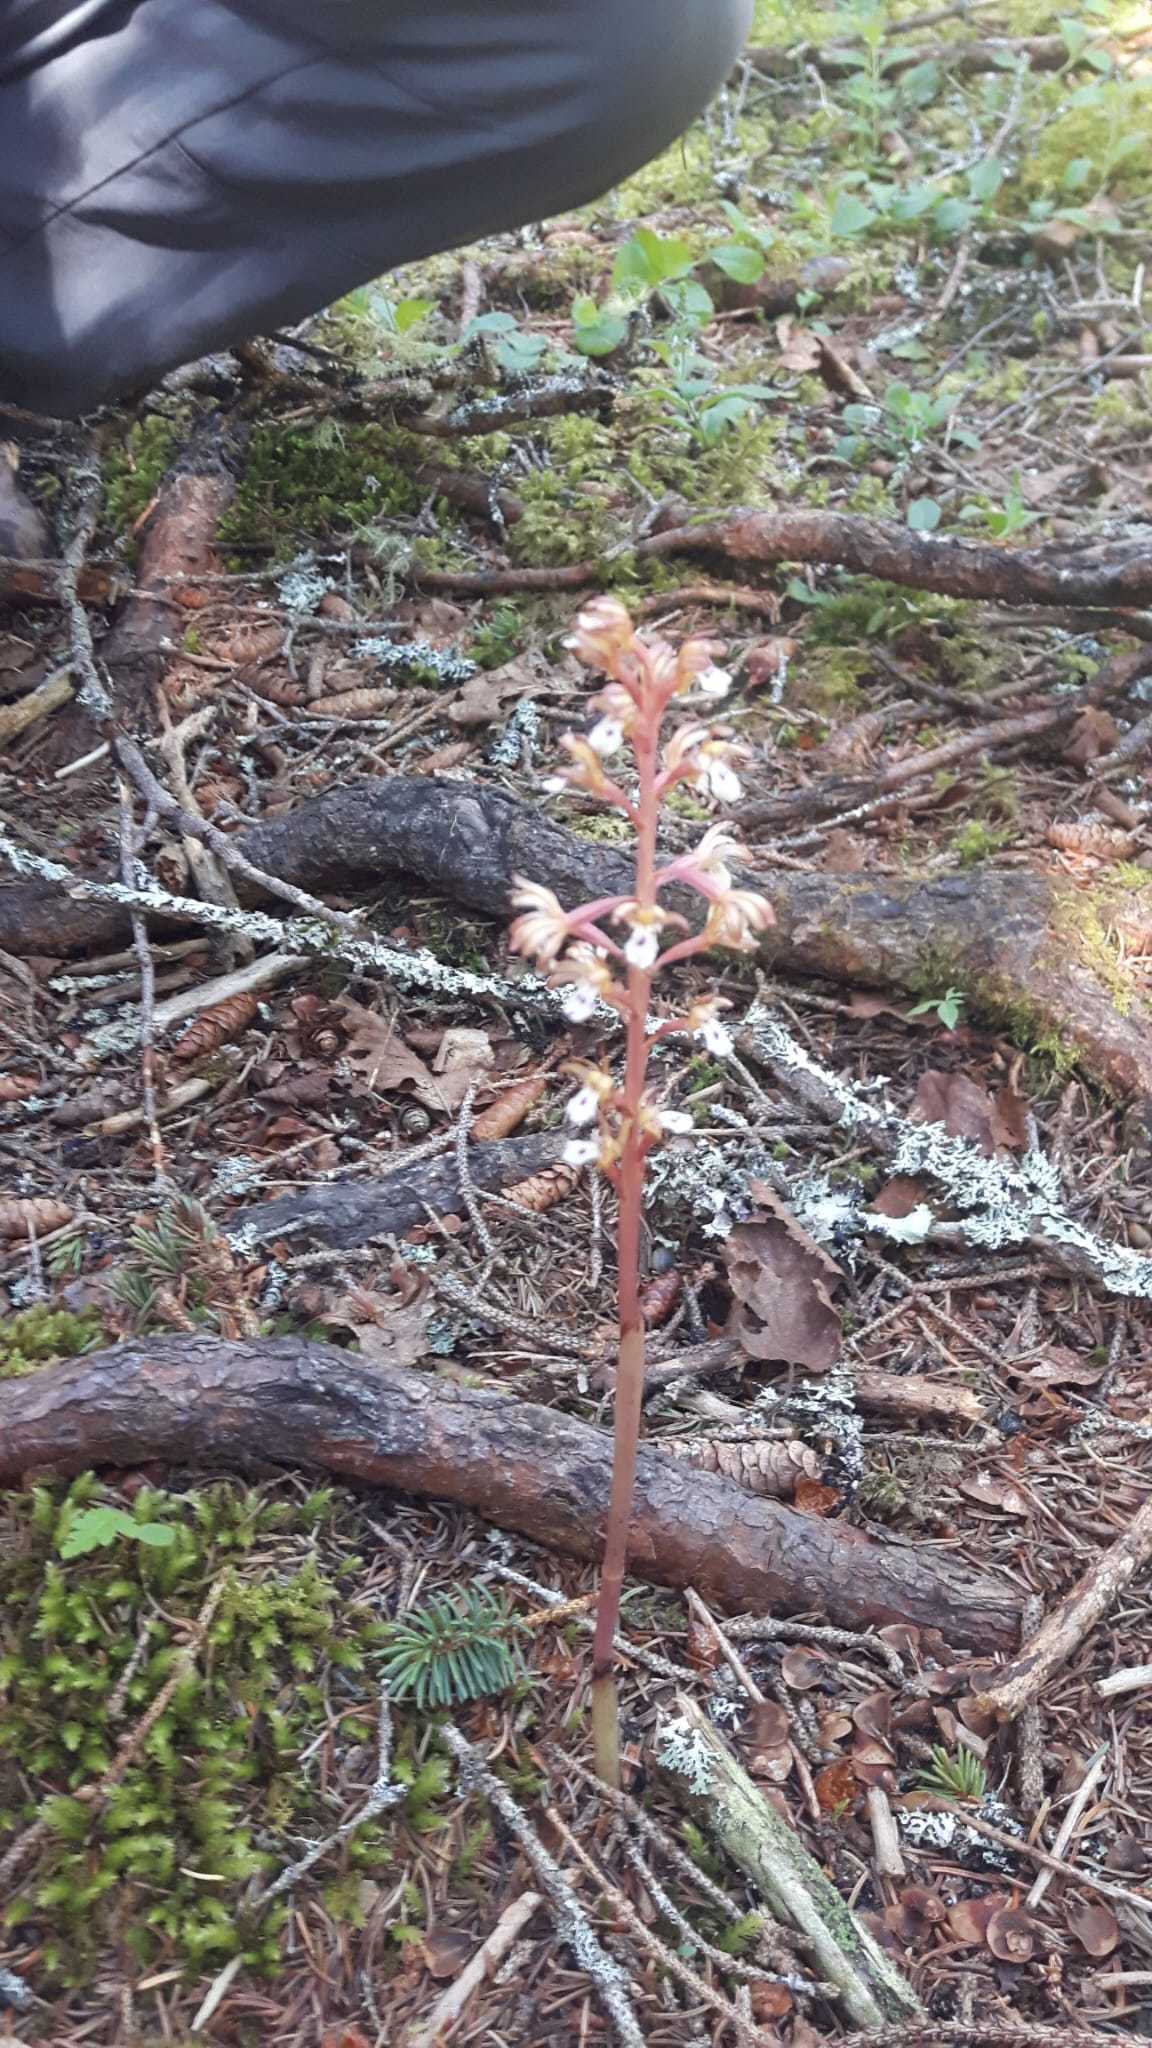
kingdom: Plantae
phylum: Tracheophyta
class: Liliopsida
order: Asparagales
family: Orchidaceae
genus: Corallorhiza
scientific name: Corallorhiza maculata
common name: Spotted coralroot
